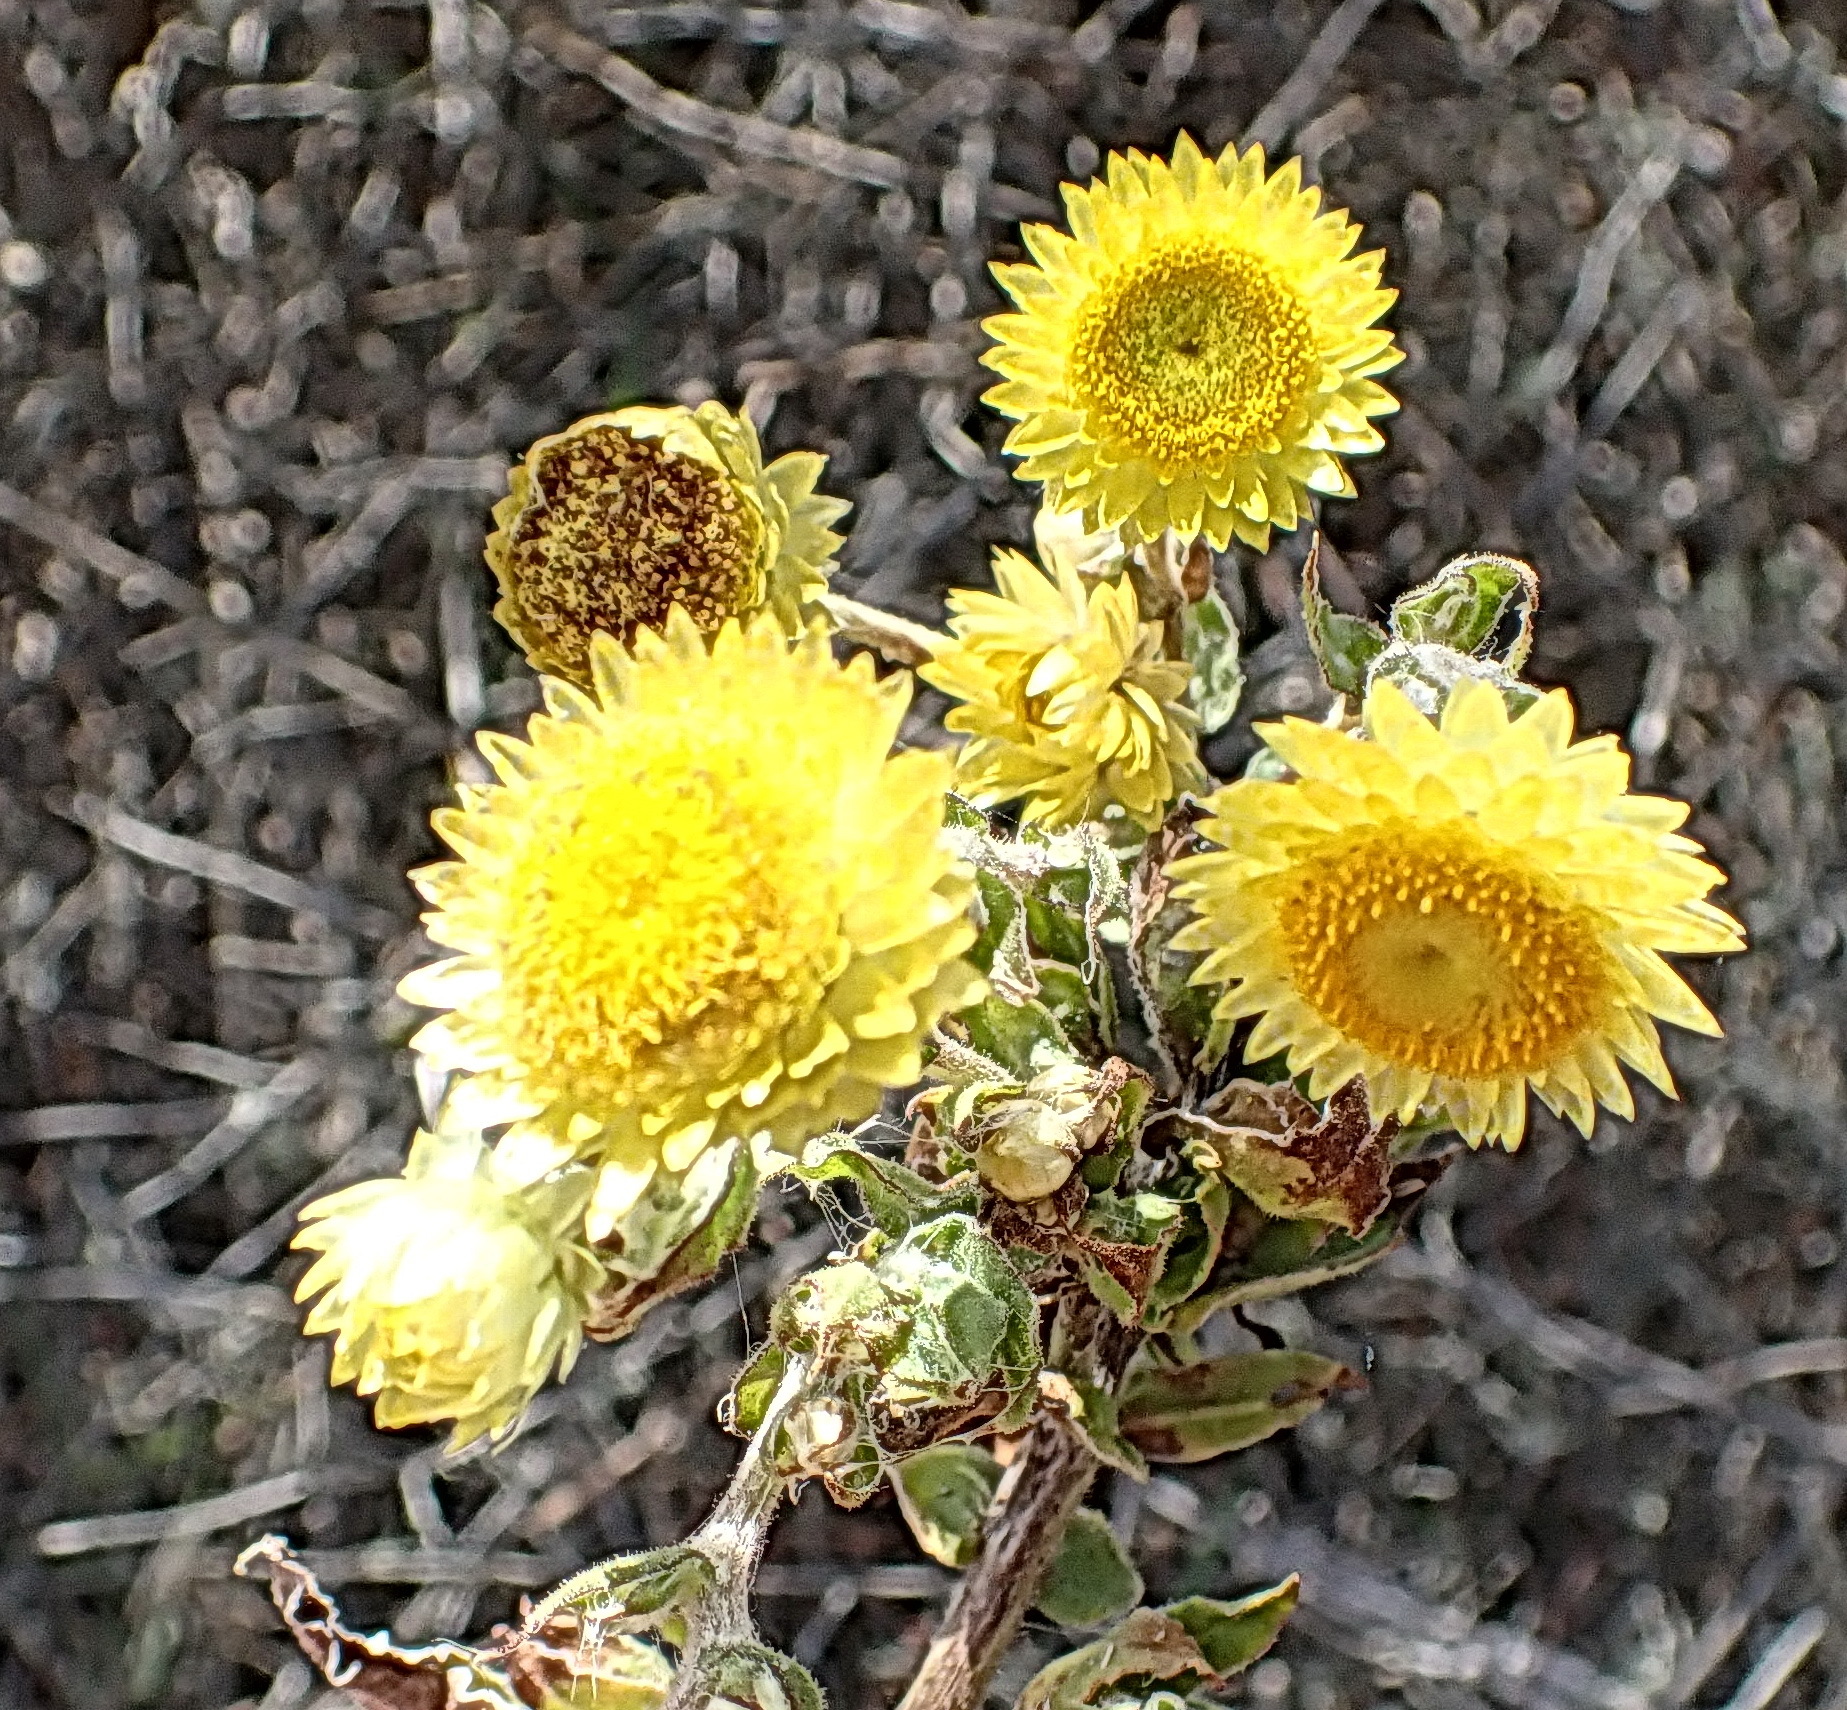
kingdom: Plantae
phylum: Tracheophyta
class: Magnoliopsida
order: Asterales
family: Asteraceae
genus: Helichrysum
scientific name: Helichrysum foetidum
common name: Stinking everlasting
